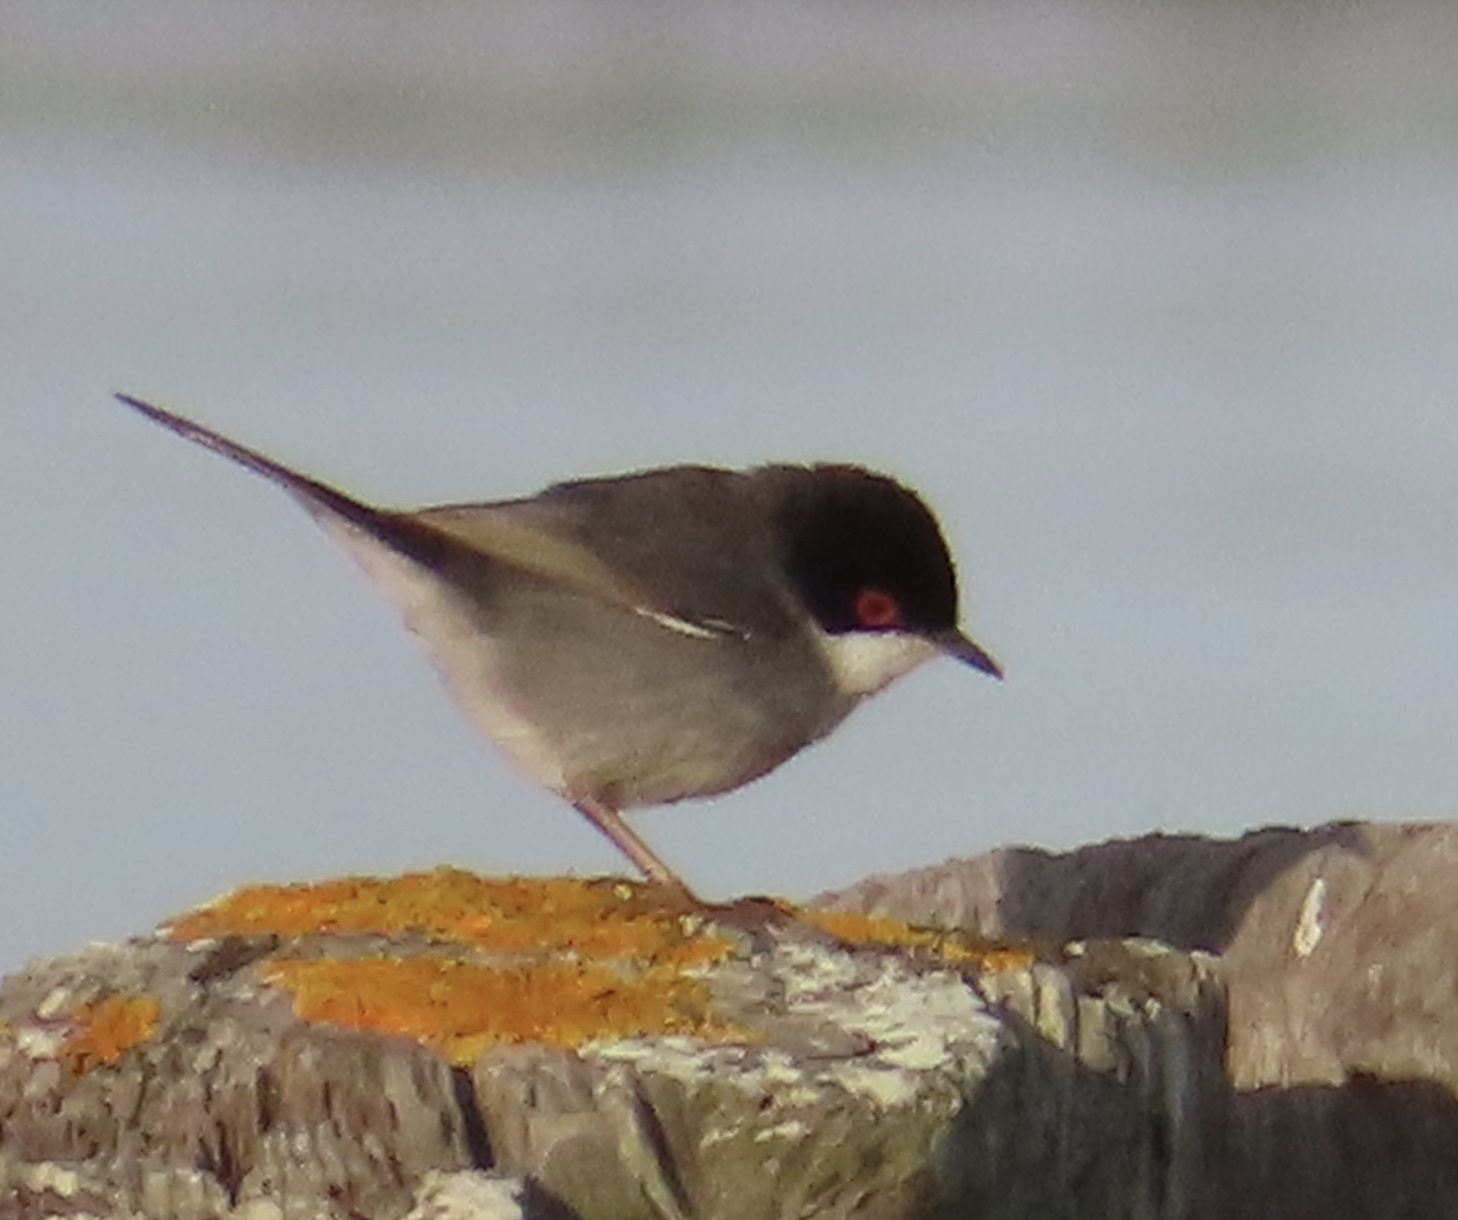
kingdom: Animalia
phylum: Chordata
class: Aves
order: Passeriformes
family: Sylviidae
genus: Curruca
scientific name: Curruca melanocephala
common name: Sardinian warbler
